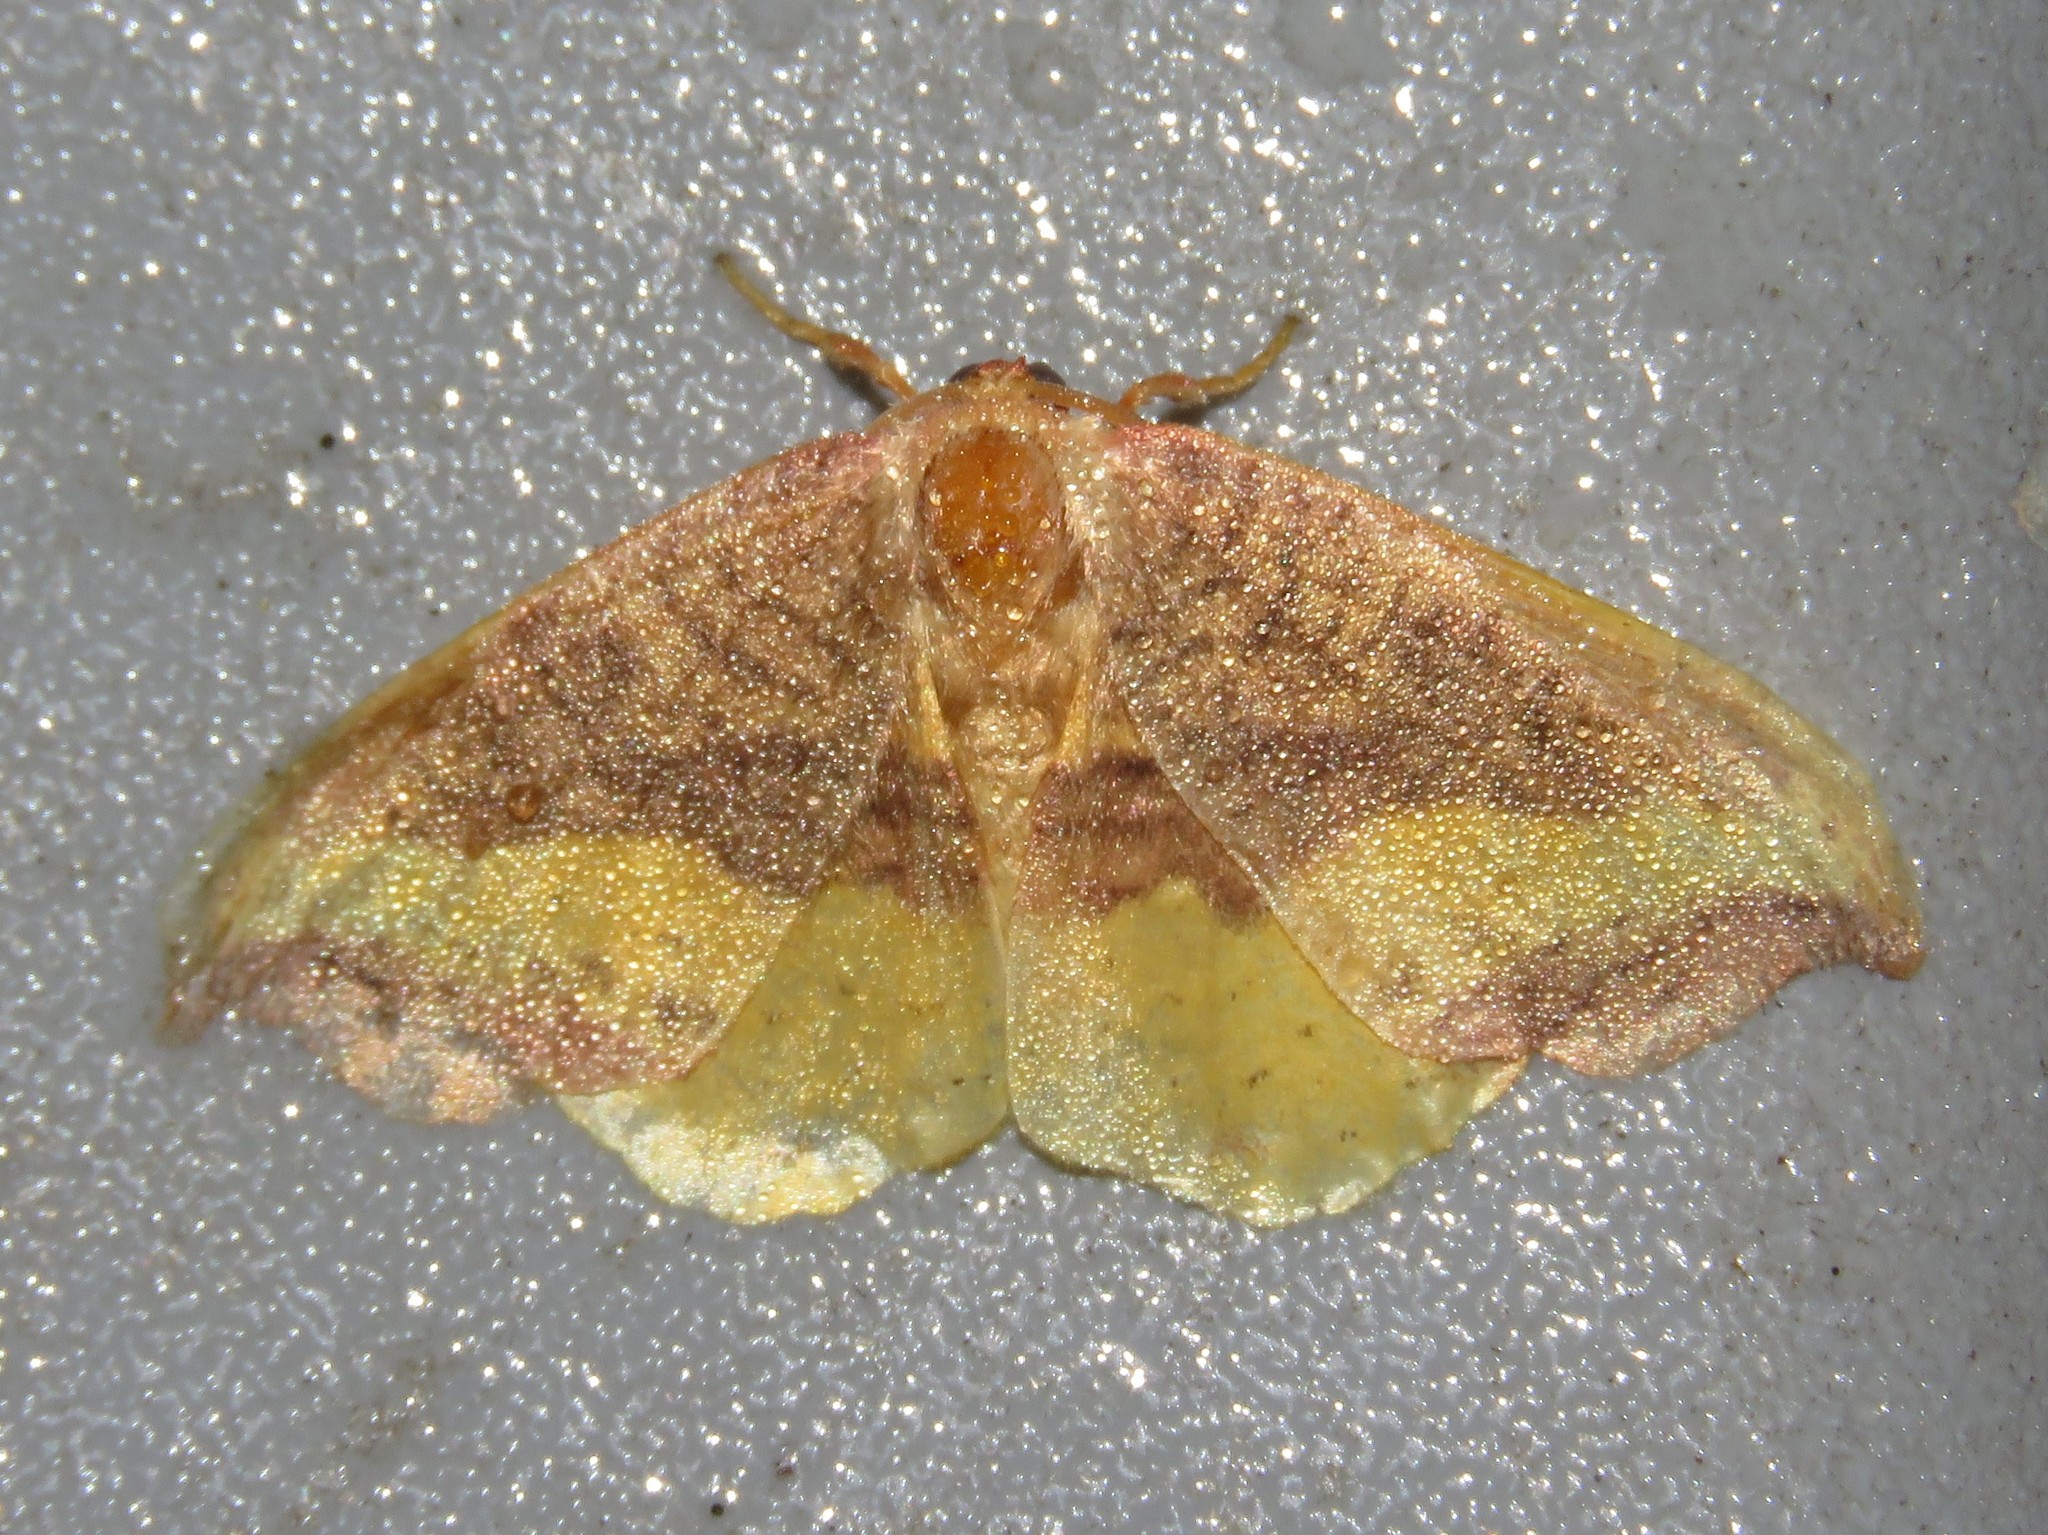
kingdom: Animalia
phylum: Arthropoda
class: Insecta
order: Lepidoptera
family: Drepanidae
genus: Oreta
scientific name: Oreta rosea
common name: Rose hooktip
